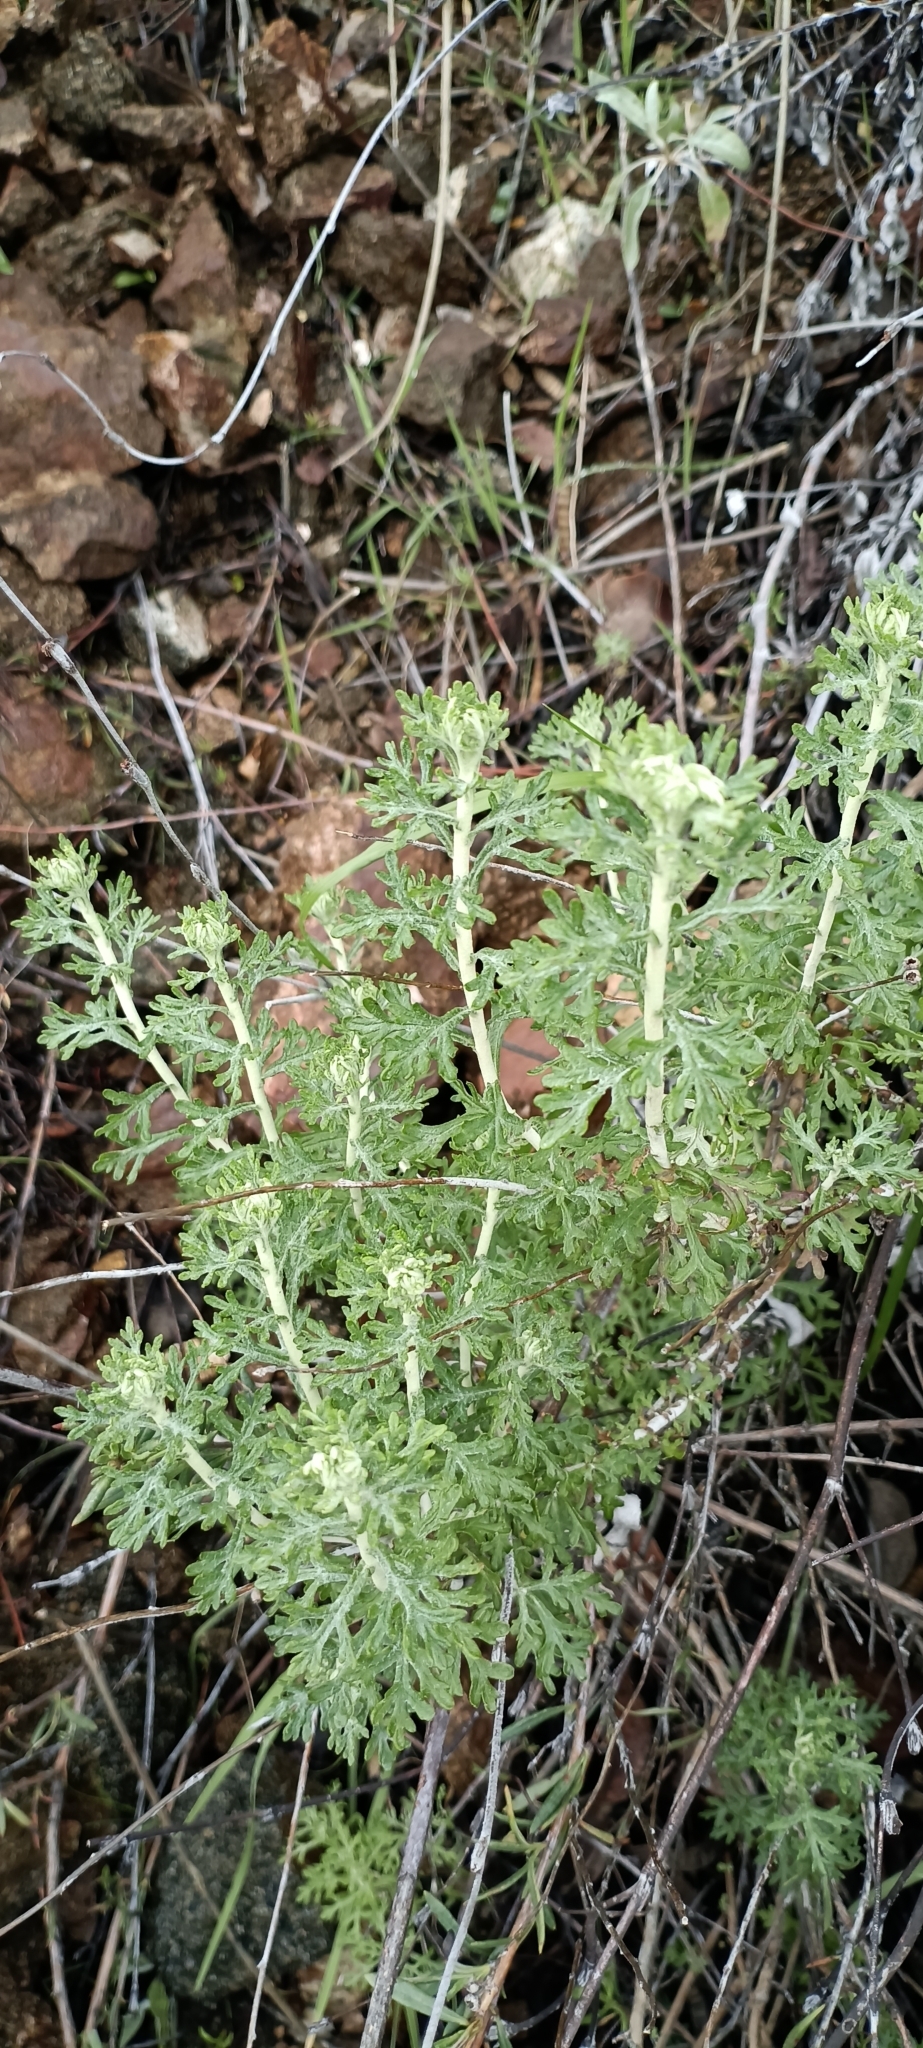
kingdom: Plantae
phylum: Tracheophyta
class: Magnoliopsida
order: Asterales
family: Asteraceae
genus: Eriophyllum
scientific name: Eriophyllum confertiflorum
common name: Golden-yarrow
